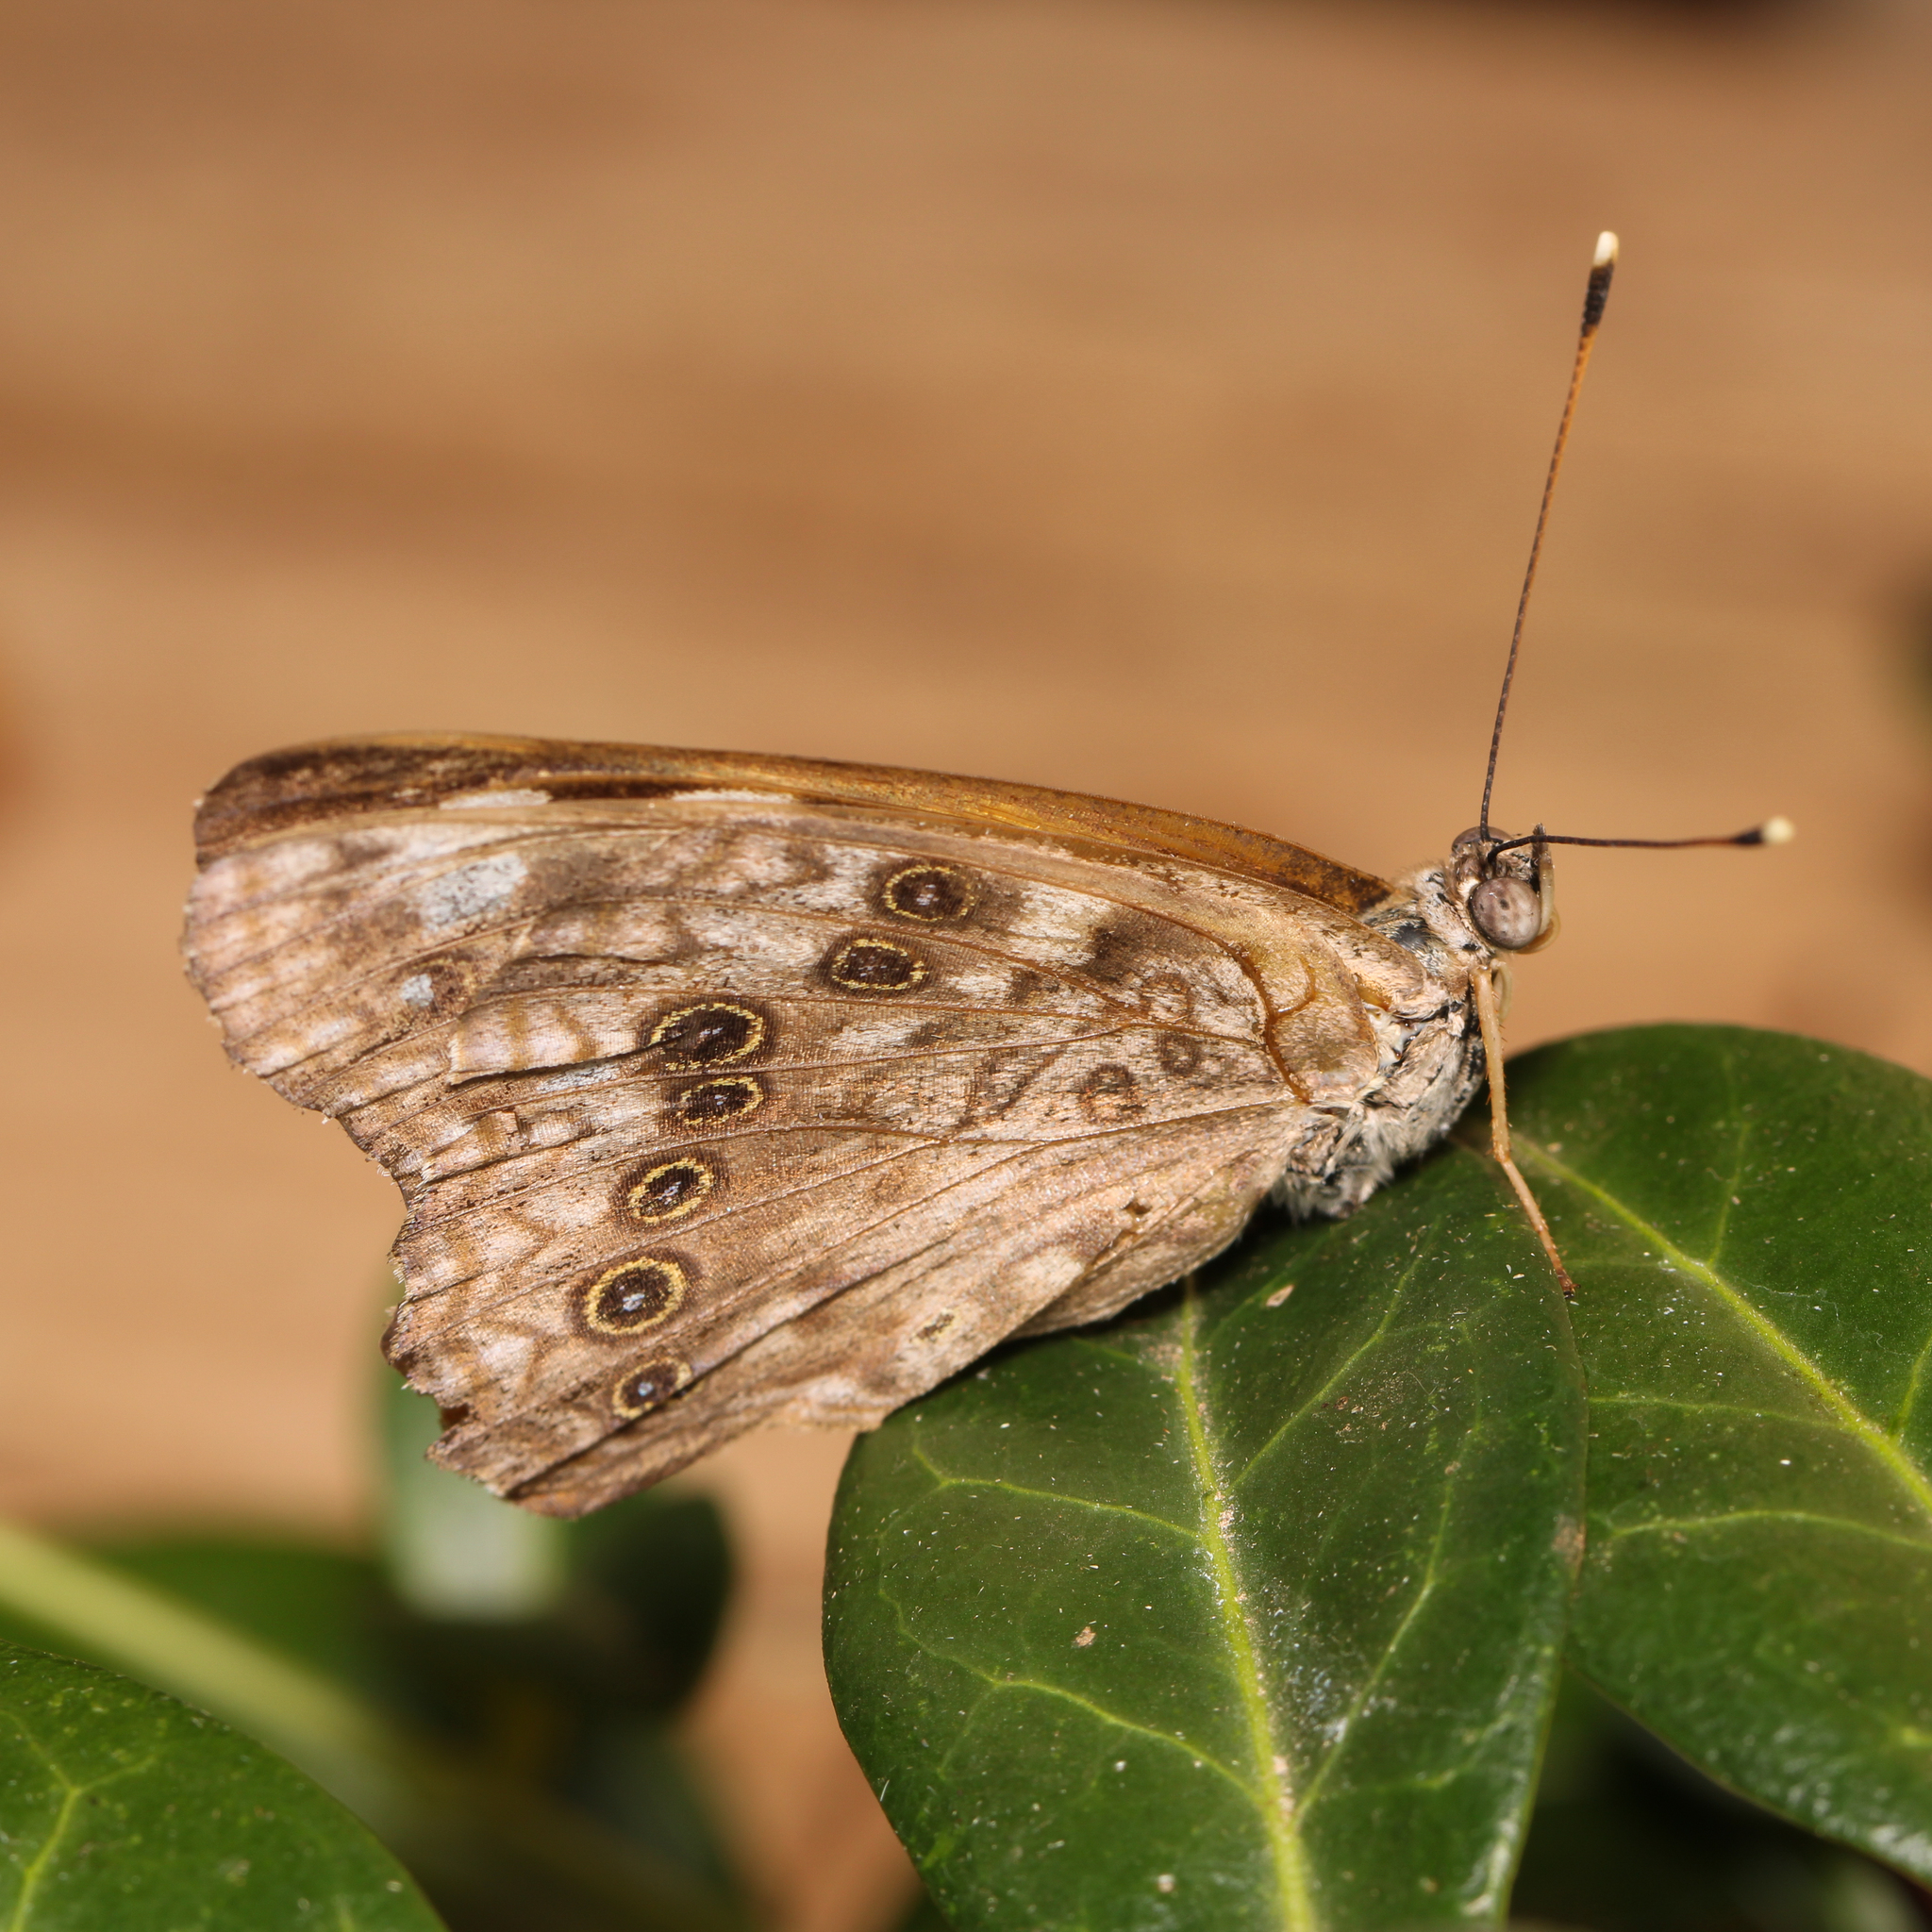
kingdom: Animalia
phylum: Arthropoda
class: Insecta
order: Lepidoptera
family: Nymphalidae
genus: Asterocampa
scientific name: Asterocampa celtis
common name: Hackberry emperor
